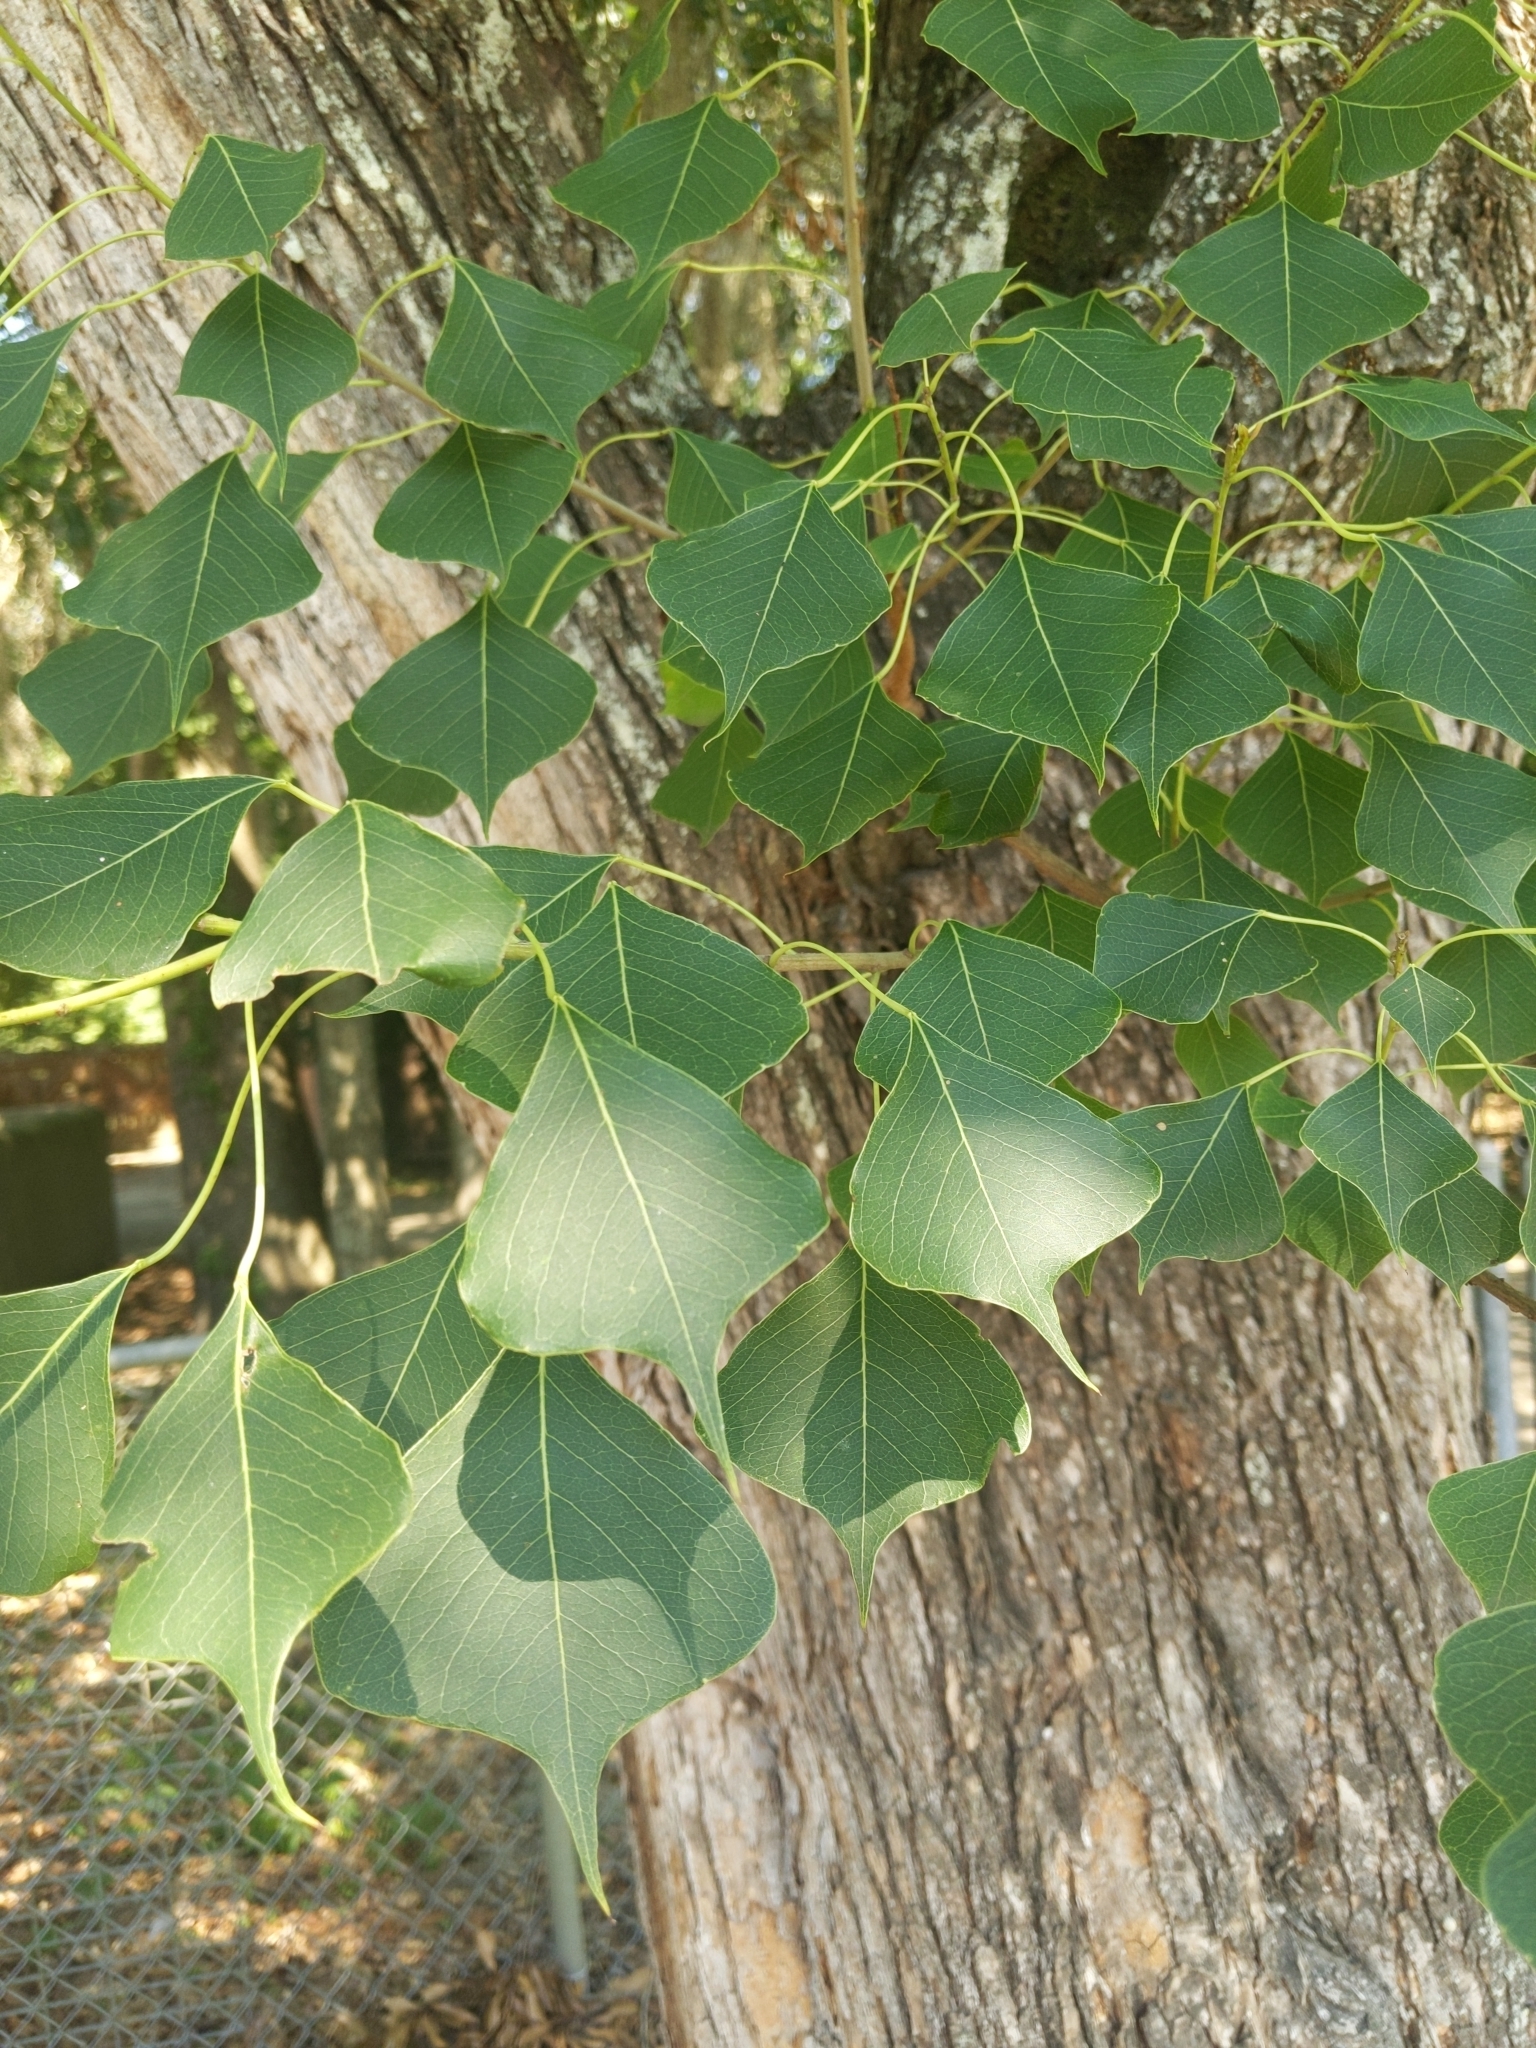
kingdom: Plantae
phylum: Tracheophyta
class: Magnoliopsida
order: Malpighiales
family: Euphorbiaceae
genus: Triadica
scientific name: Triadica sebifera
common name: Chinese tallow
